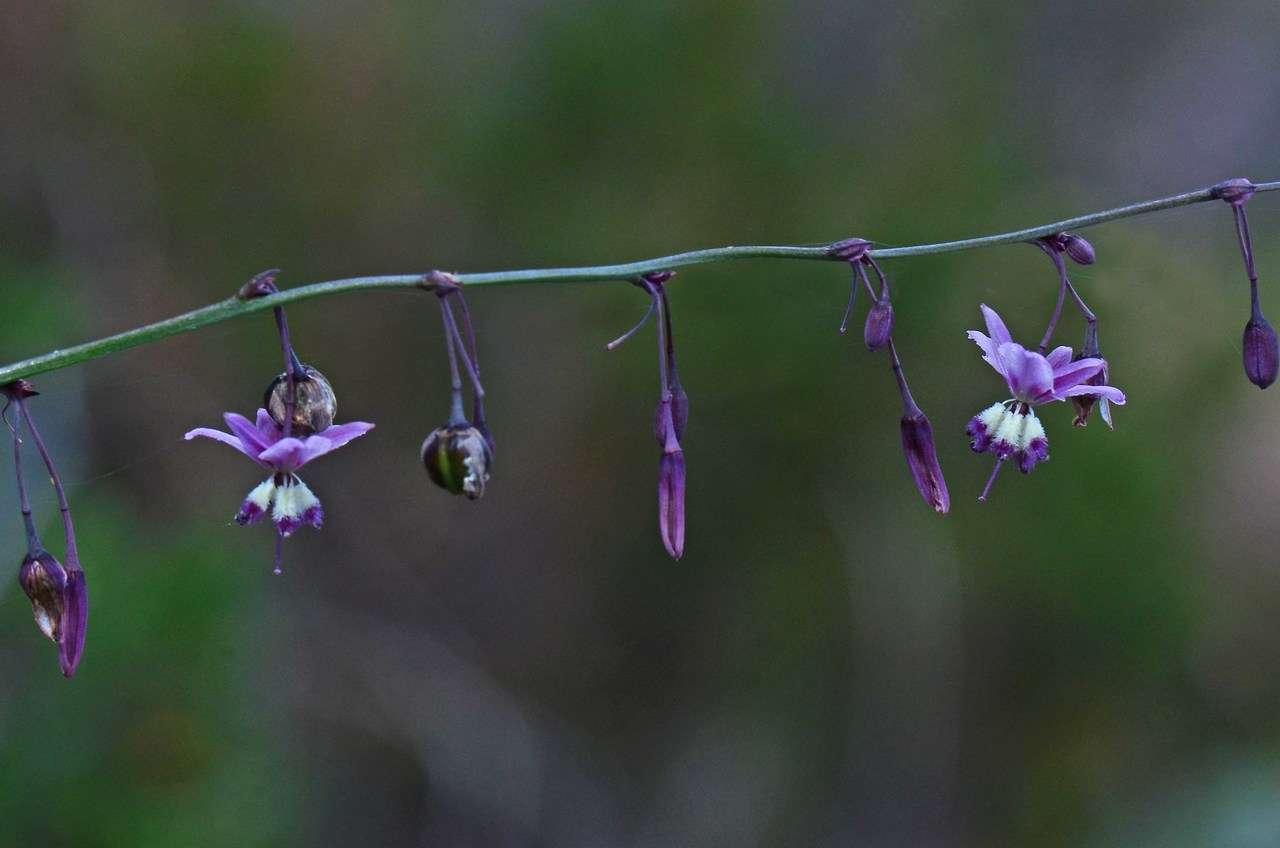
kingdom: Plantae
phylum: Tracheophyta
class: Liliopsida
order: Asparagales
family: Asparagaceae
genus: Arthropodium
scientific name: Arthropodium milleflorum
